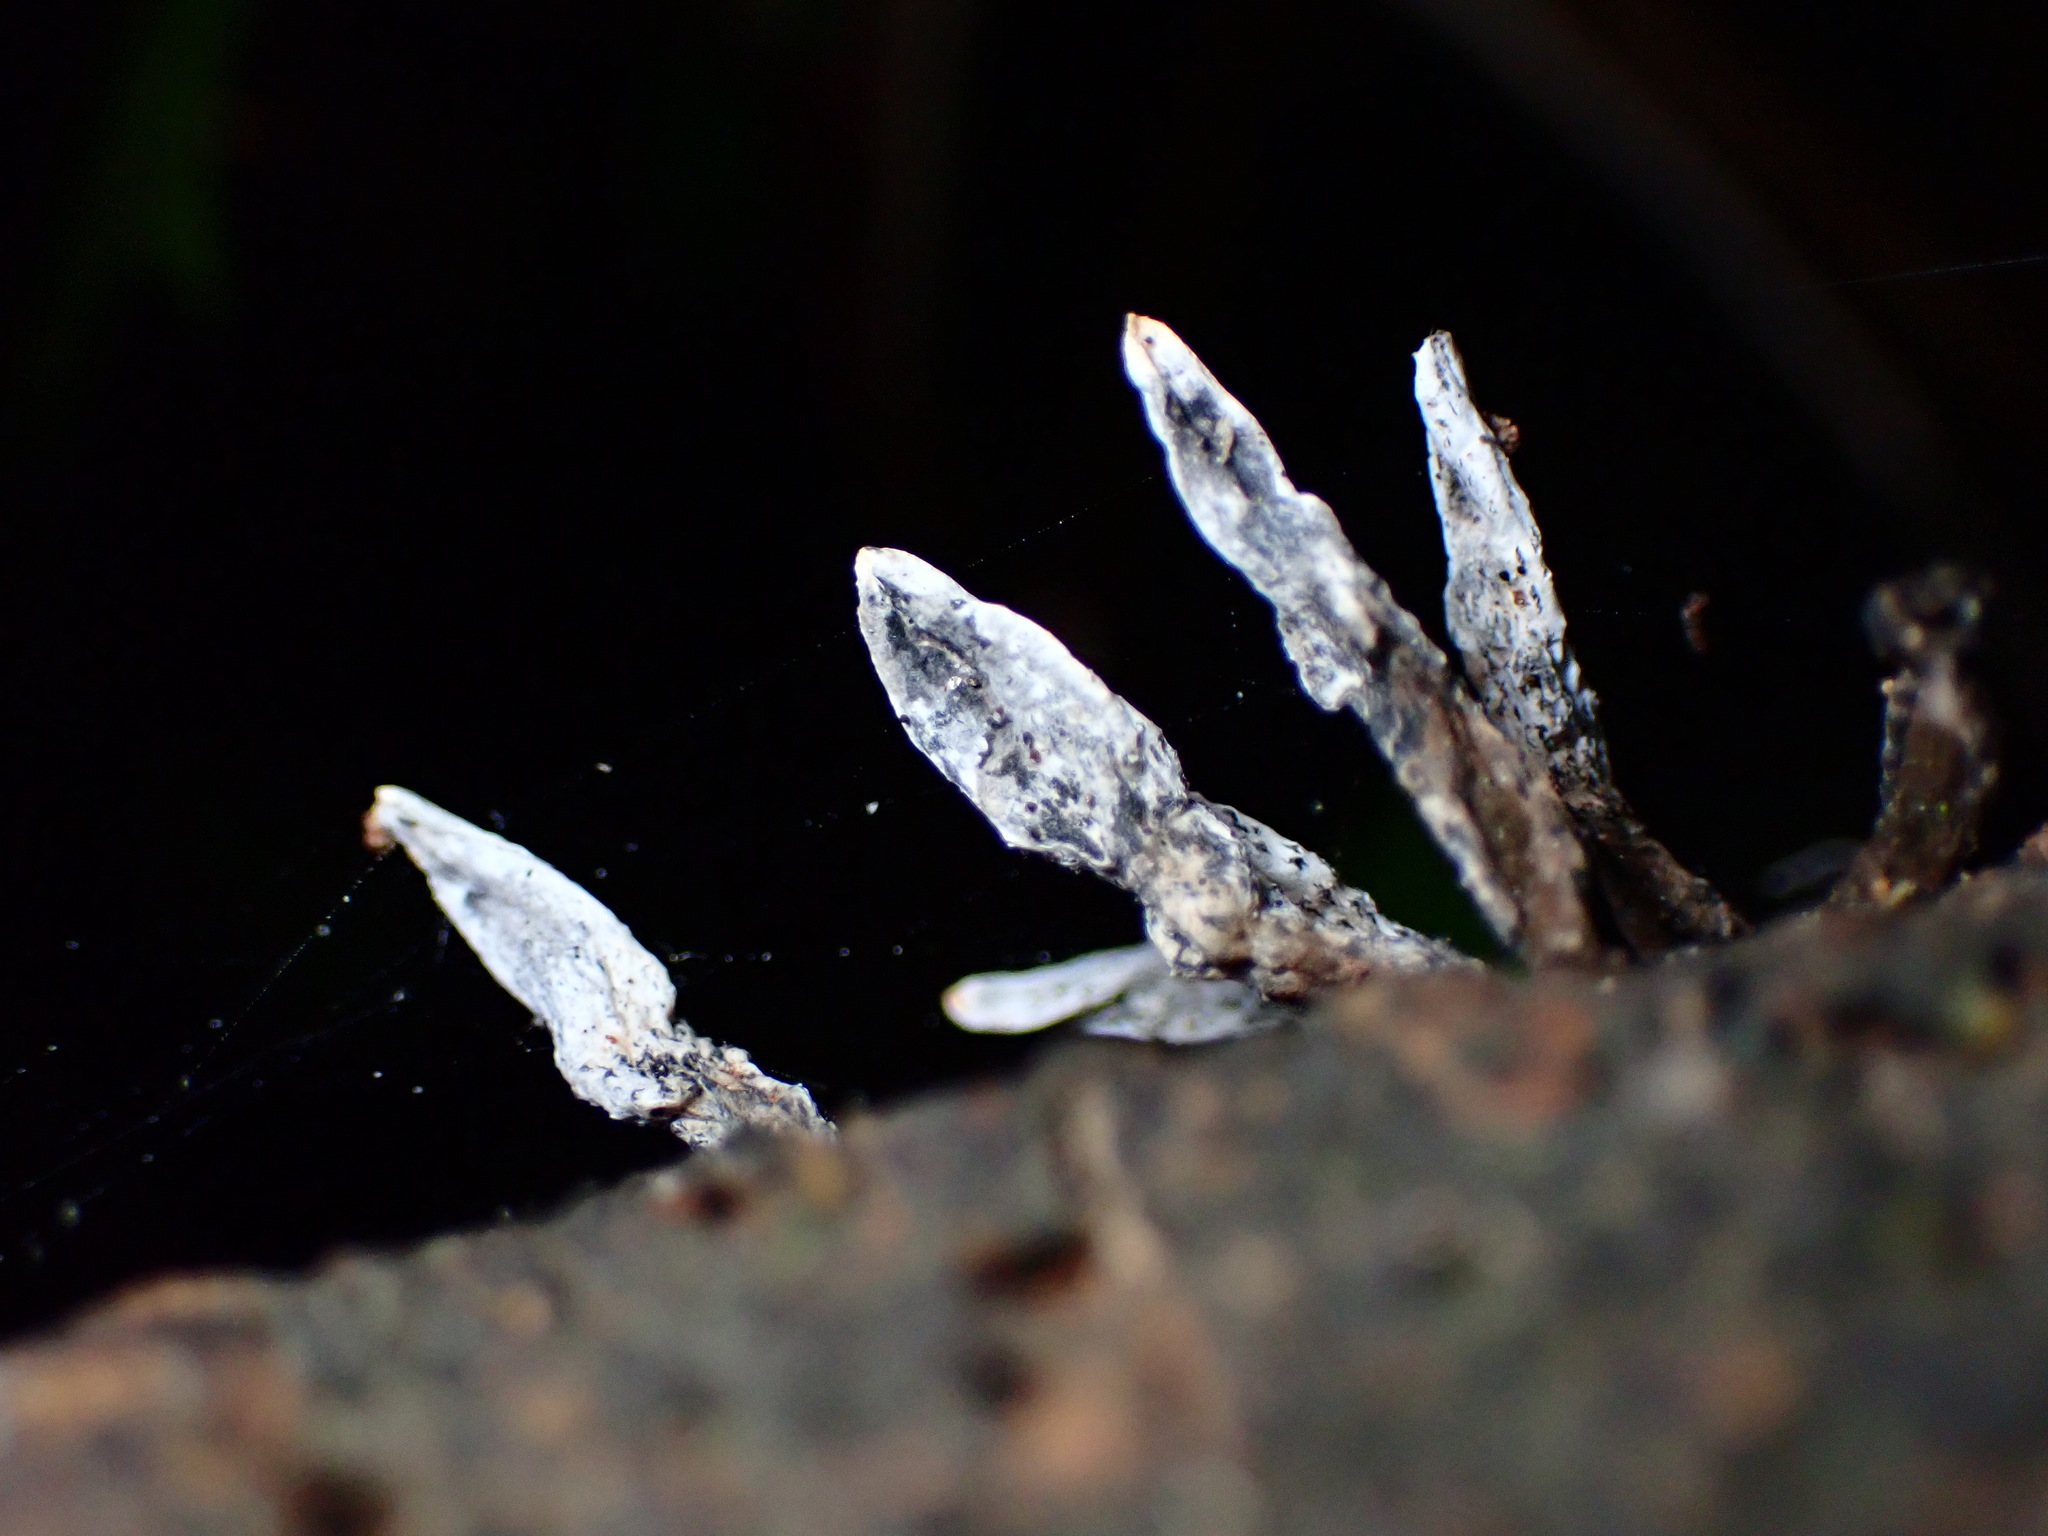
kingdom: Fungi
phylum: Ascomycota
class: Sordariomycetes
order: Xylariales
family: Xylariaceae
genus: Xylaria
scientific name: Xylaria hypoxylon
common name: Candle-snuff fungus
